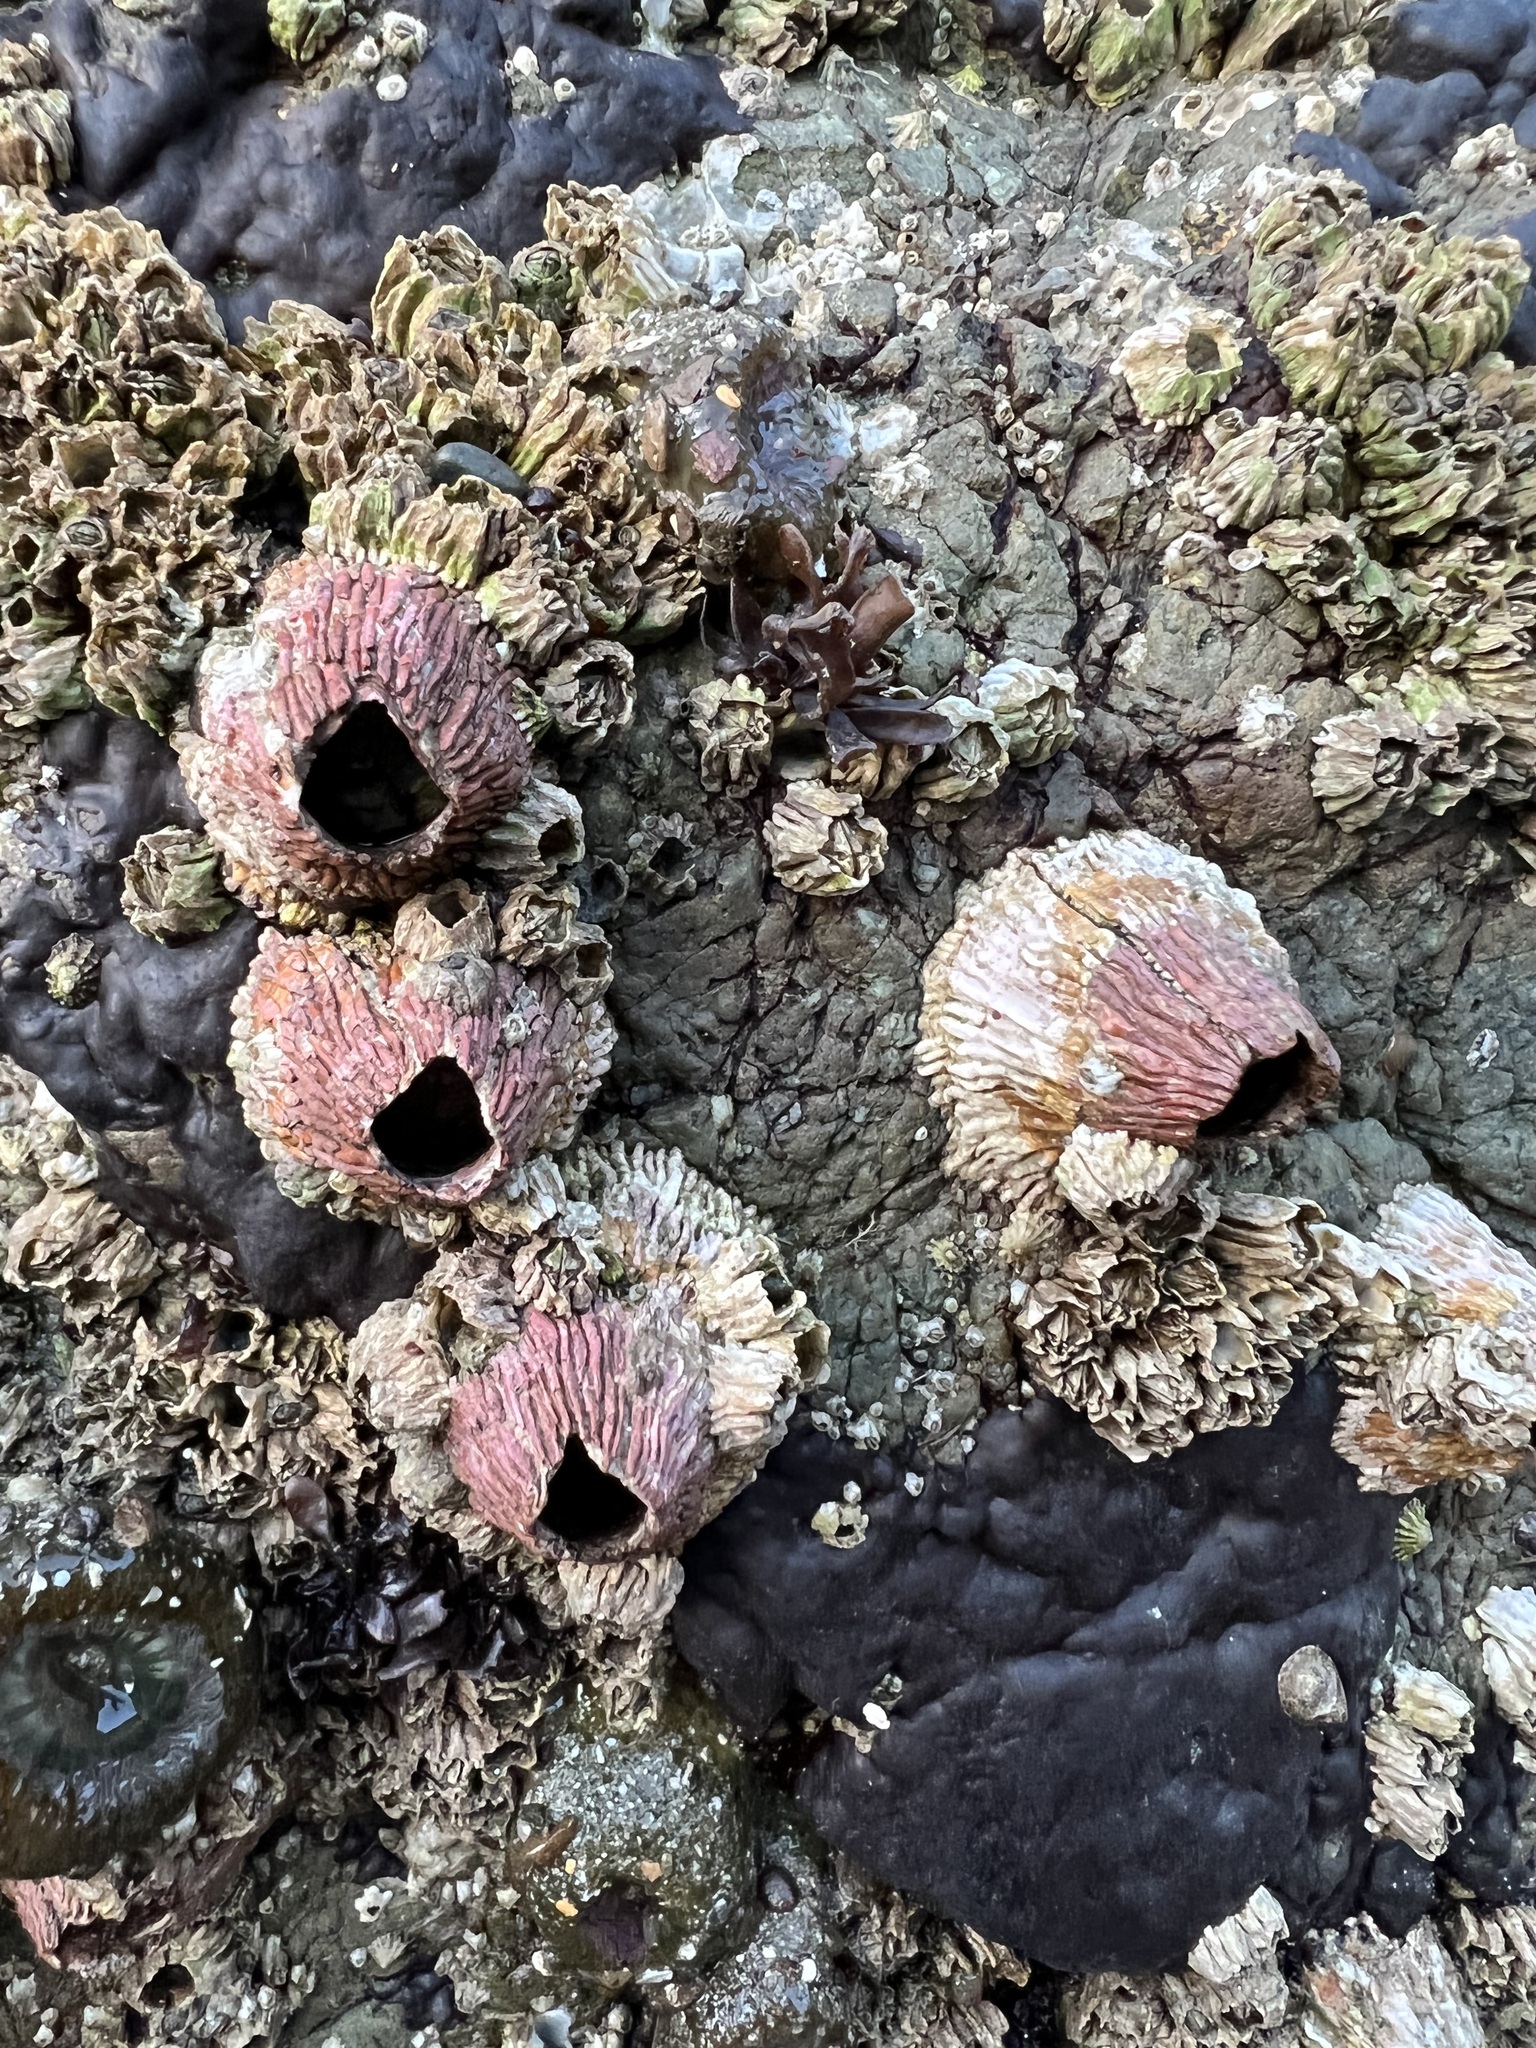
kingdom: Animalia
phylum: Arthropoda
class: Maxillopoda
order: Sessilia
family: Tetraclitidae
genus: Tetraclita
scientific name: Tetraclita rubescens
